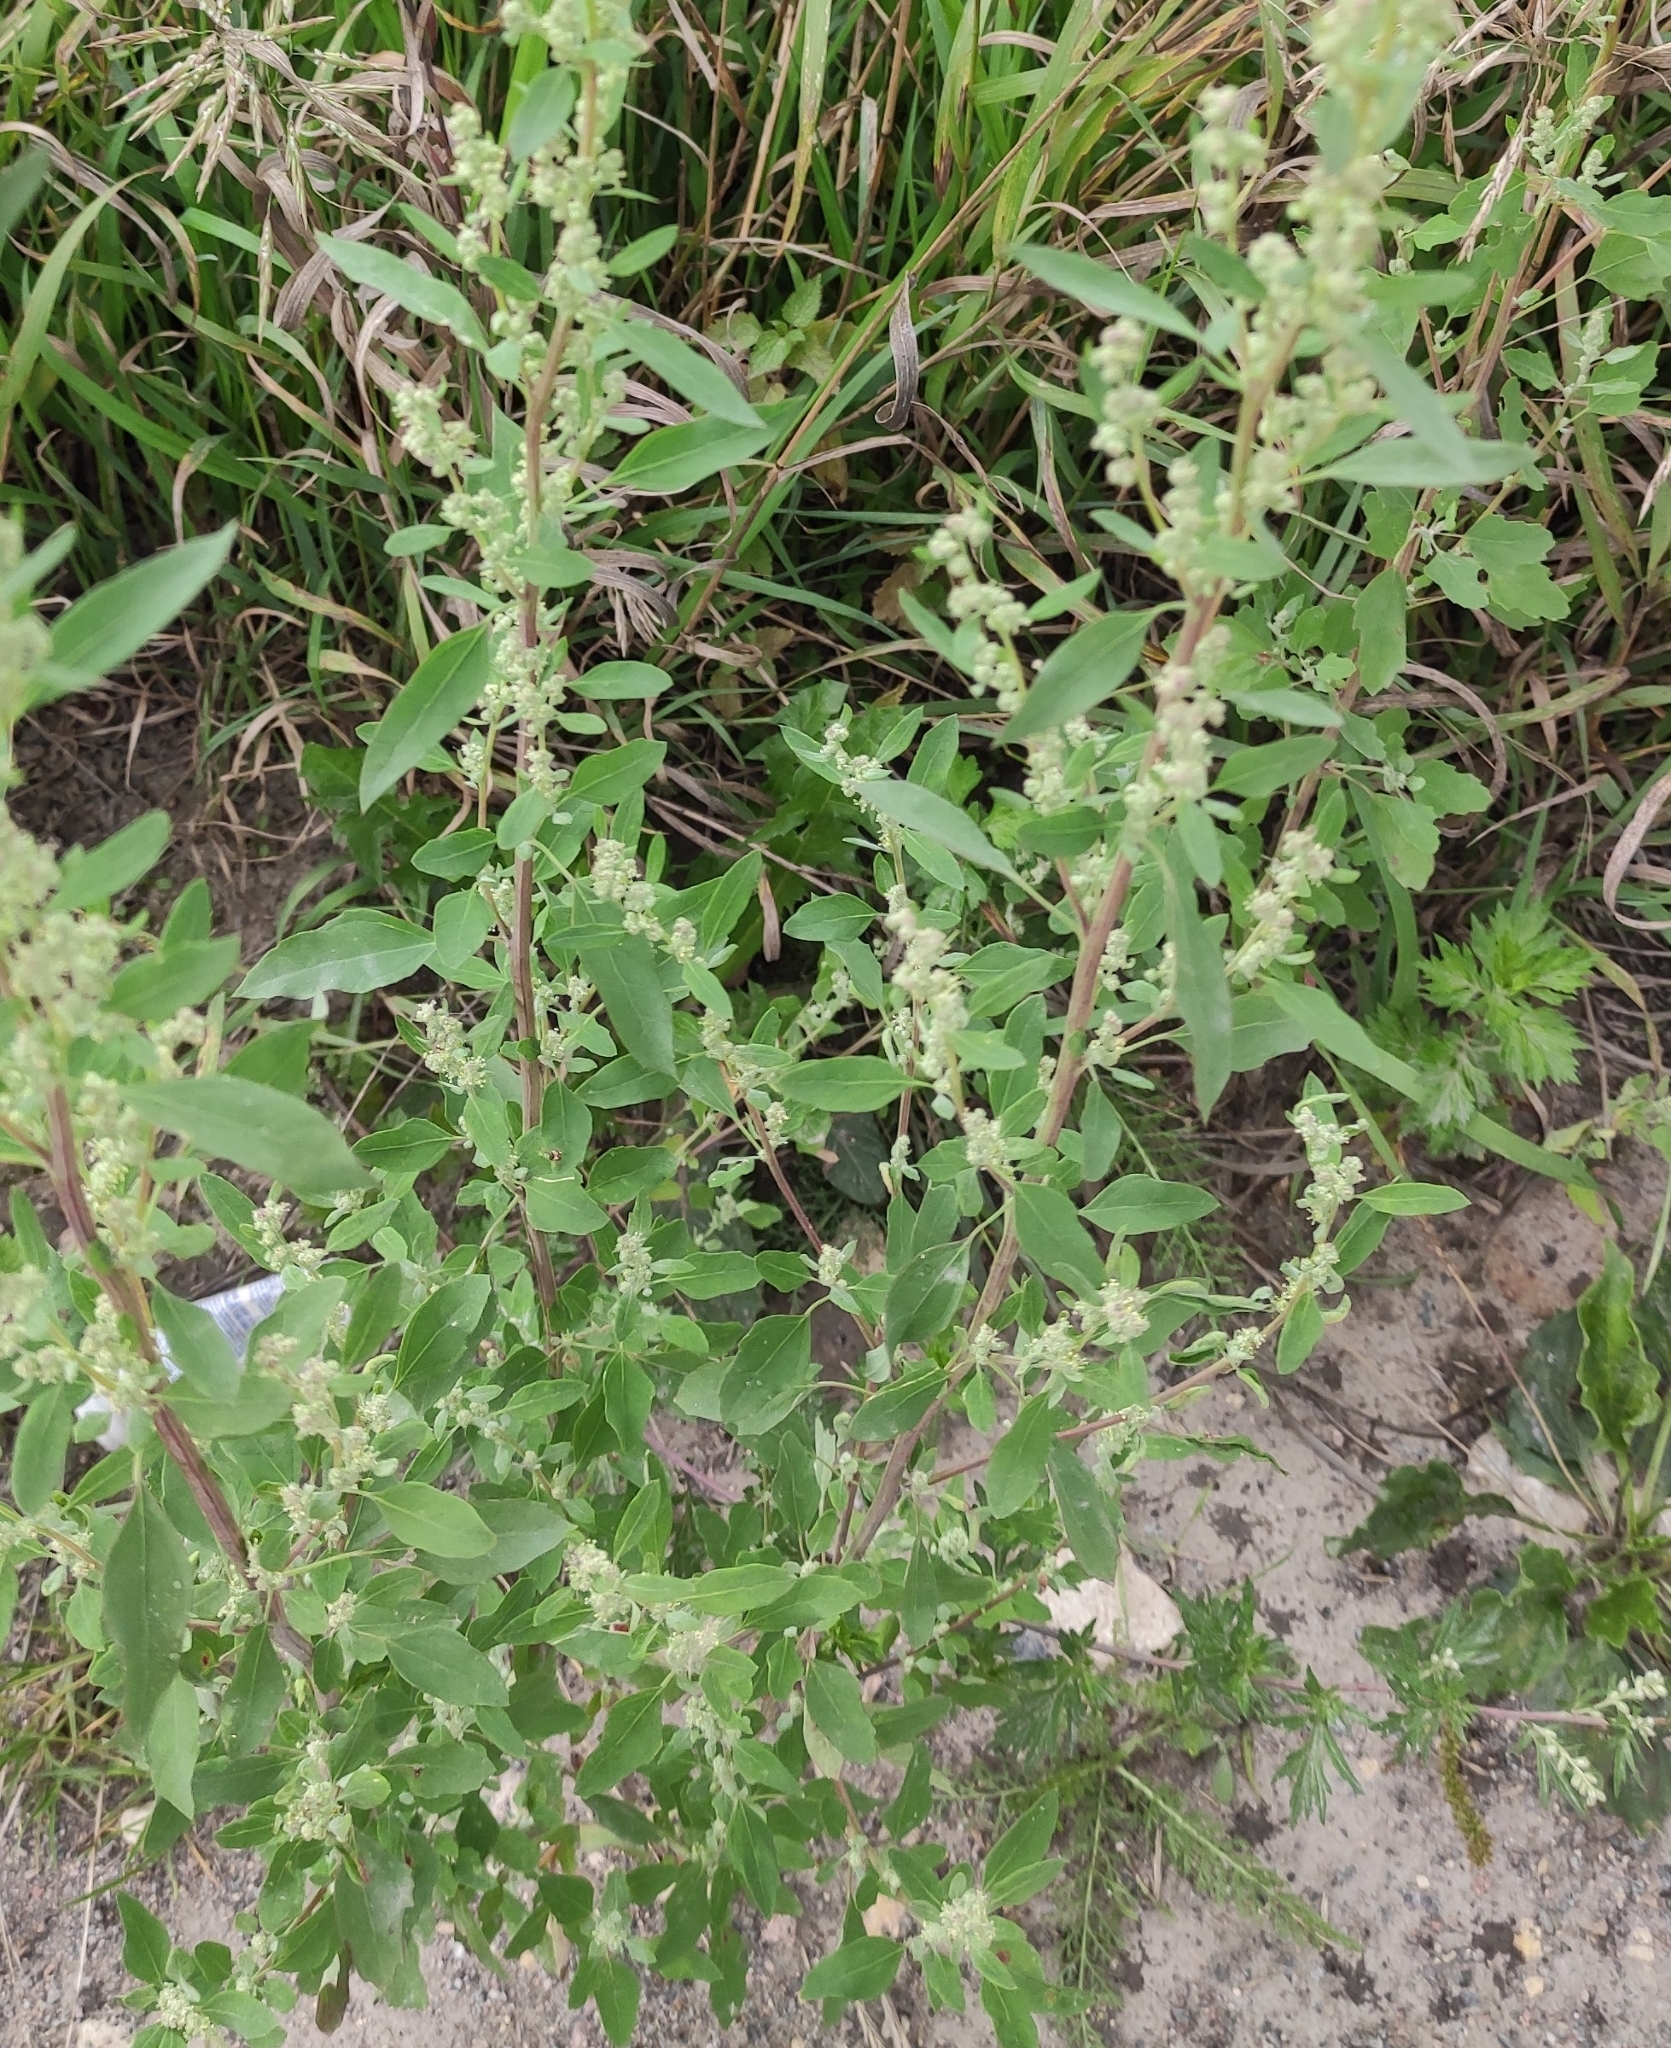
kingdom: Plantae
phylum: Tracheophyta
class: Magnoliopsida
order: Caryophyllales
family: Amaranthaceae
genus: Chenopodium
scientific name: Chenopodium album
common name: Fat-hen
